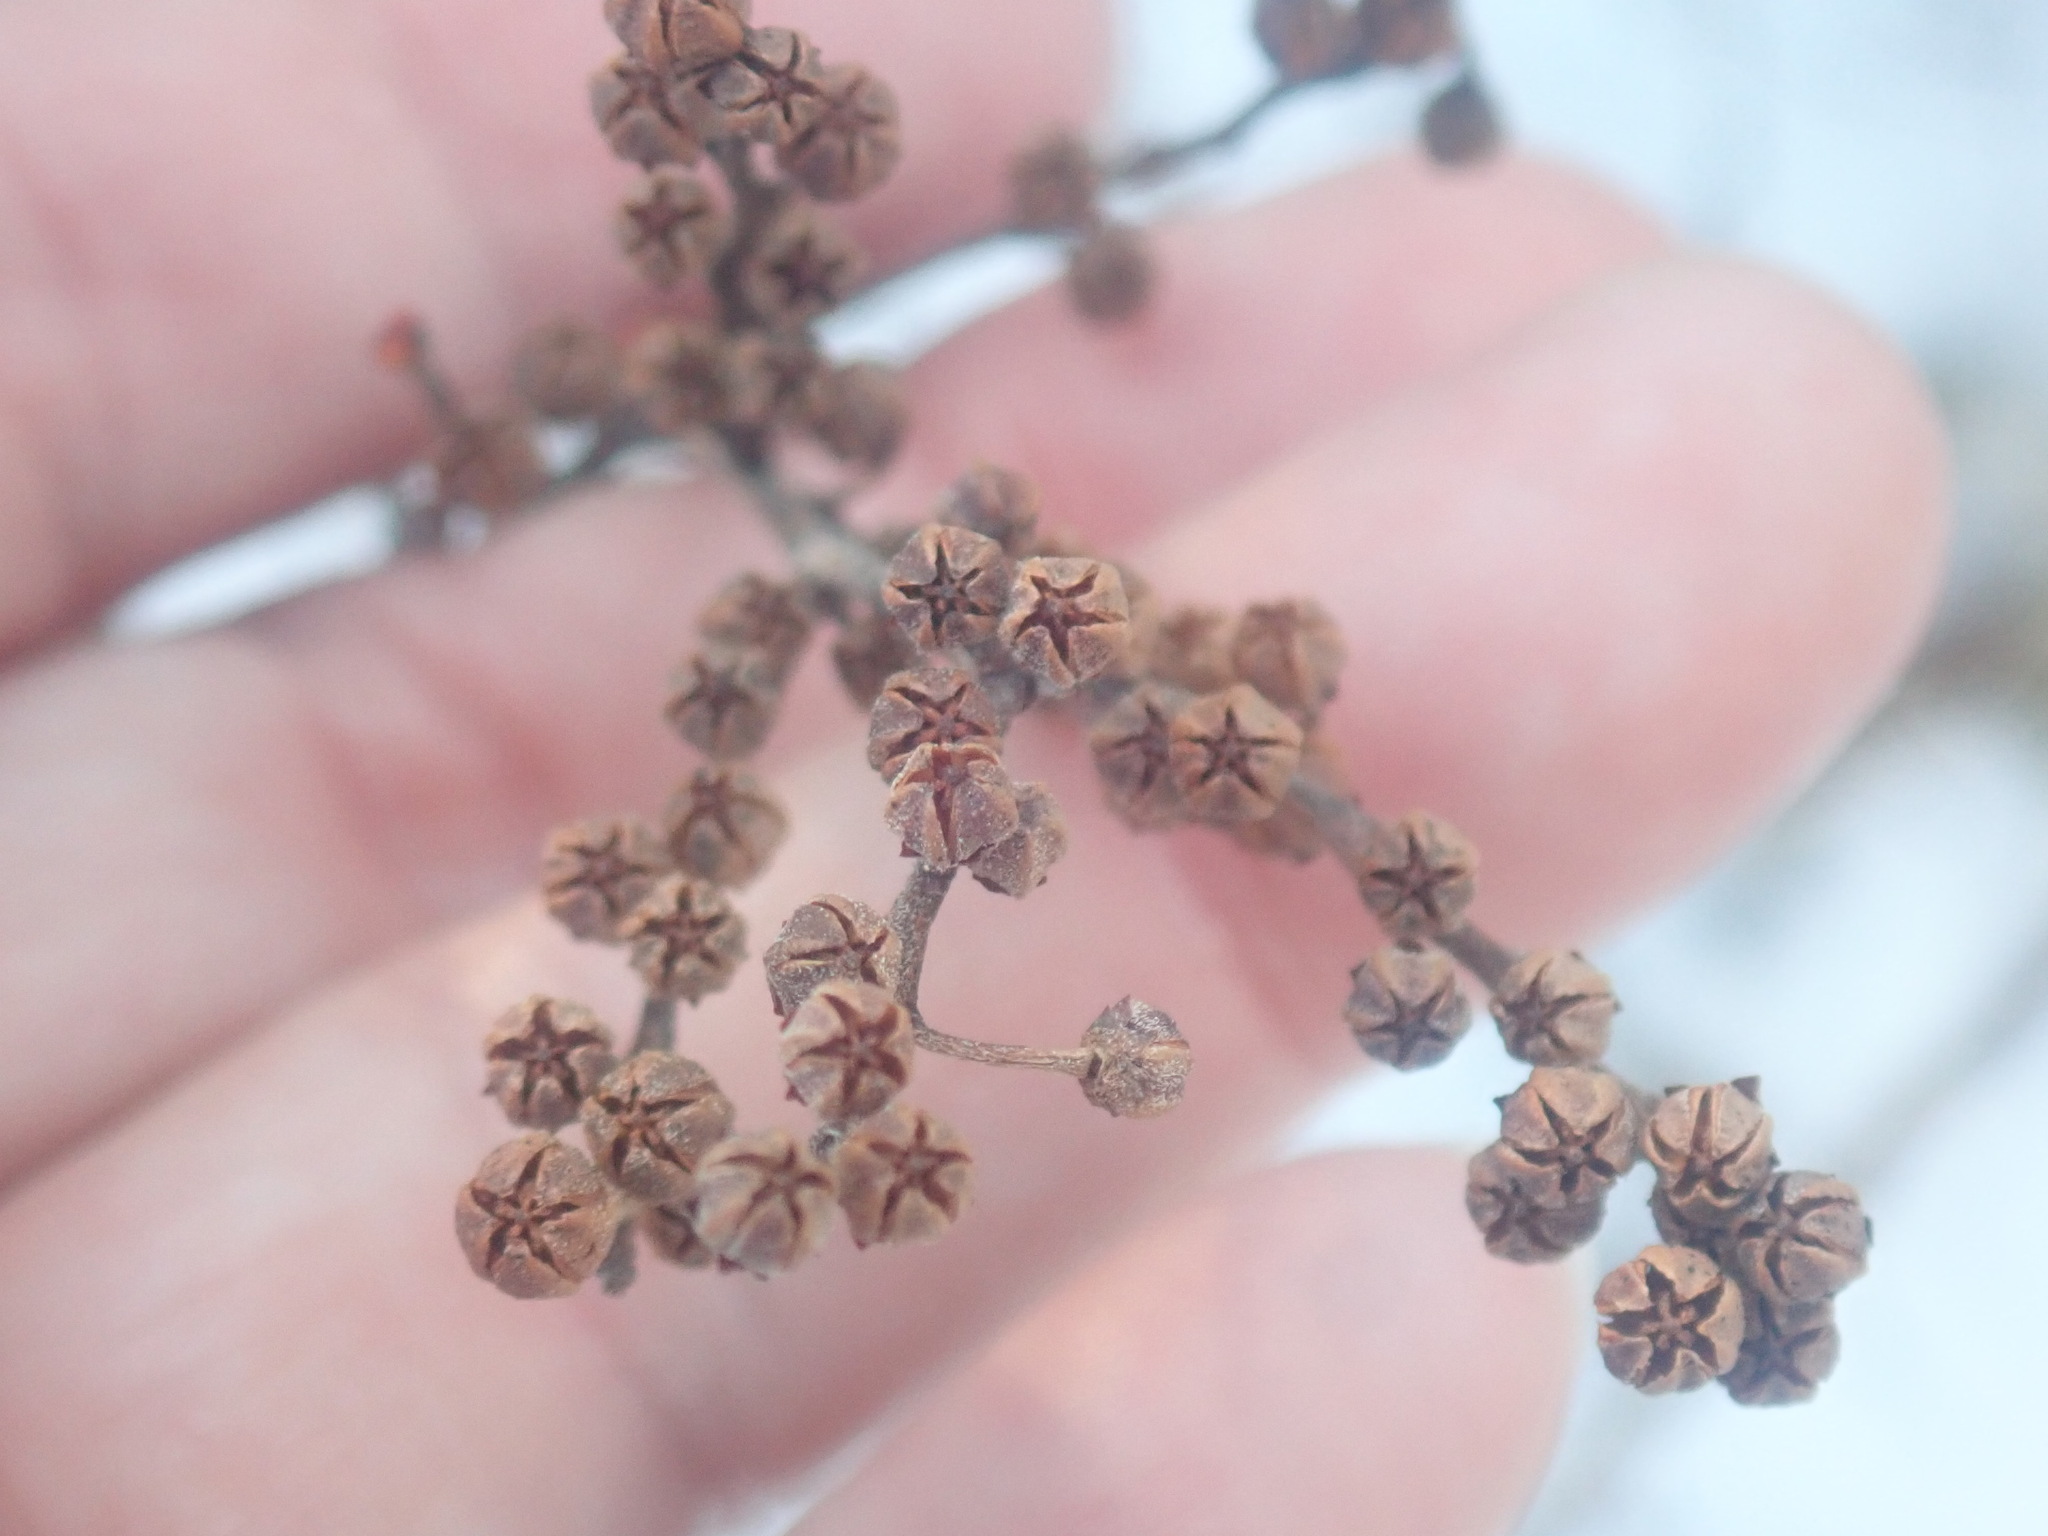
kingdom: Plantae
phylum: Tracheophyta
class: Magnoliopsida
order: Ericales
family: Ericaceae
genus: Lyonia
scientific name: Lyonia ligustrina
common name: Maleberry
